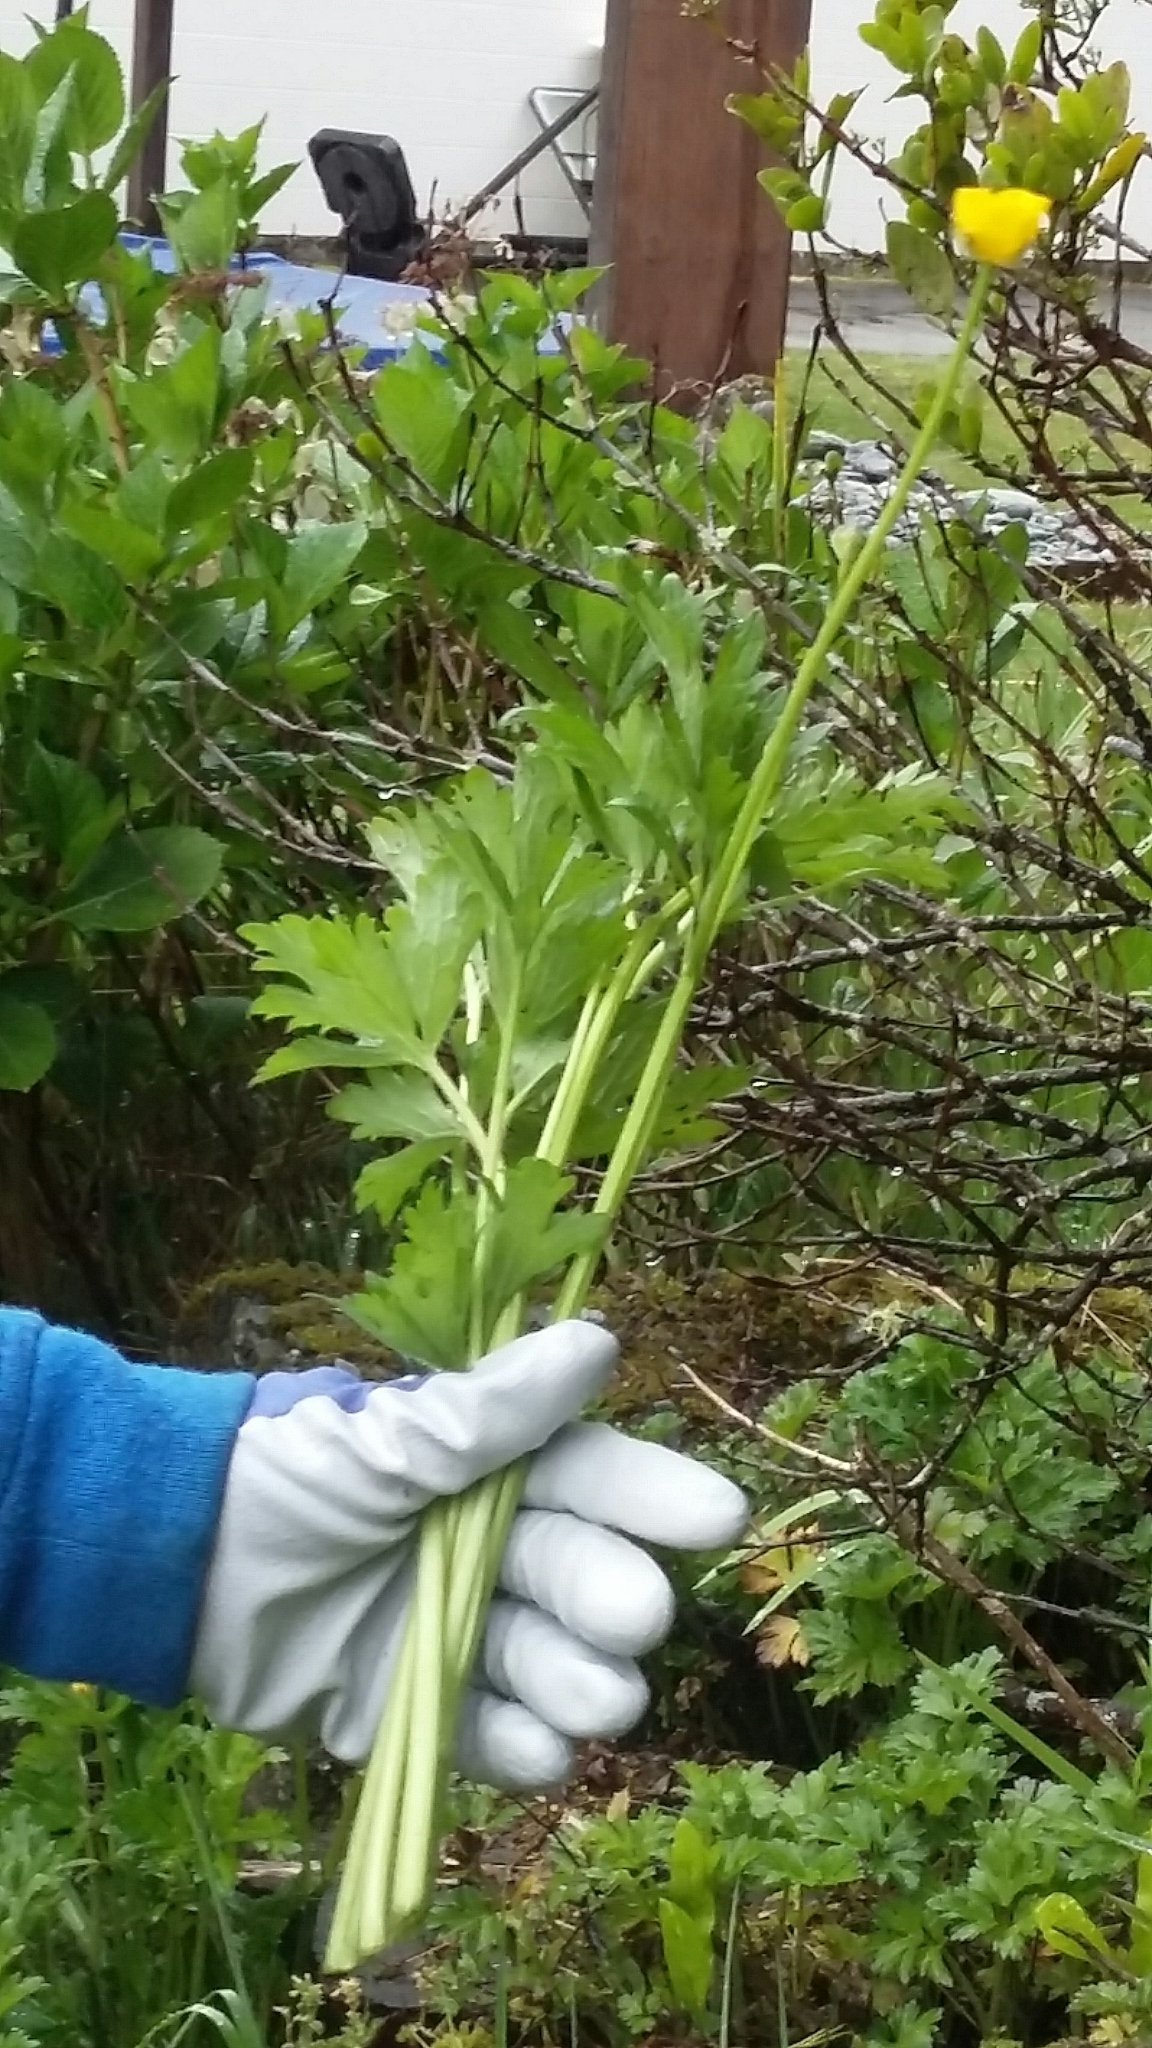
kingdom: Plantae
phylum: Tracheophyta
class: Magnoliopsida
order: Ranunculales
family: Ranunculaceae
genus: Ranunculus
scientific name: Ranunculus repens
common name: Creeping buttercup
